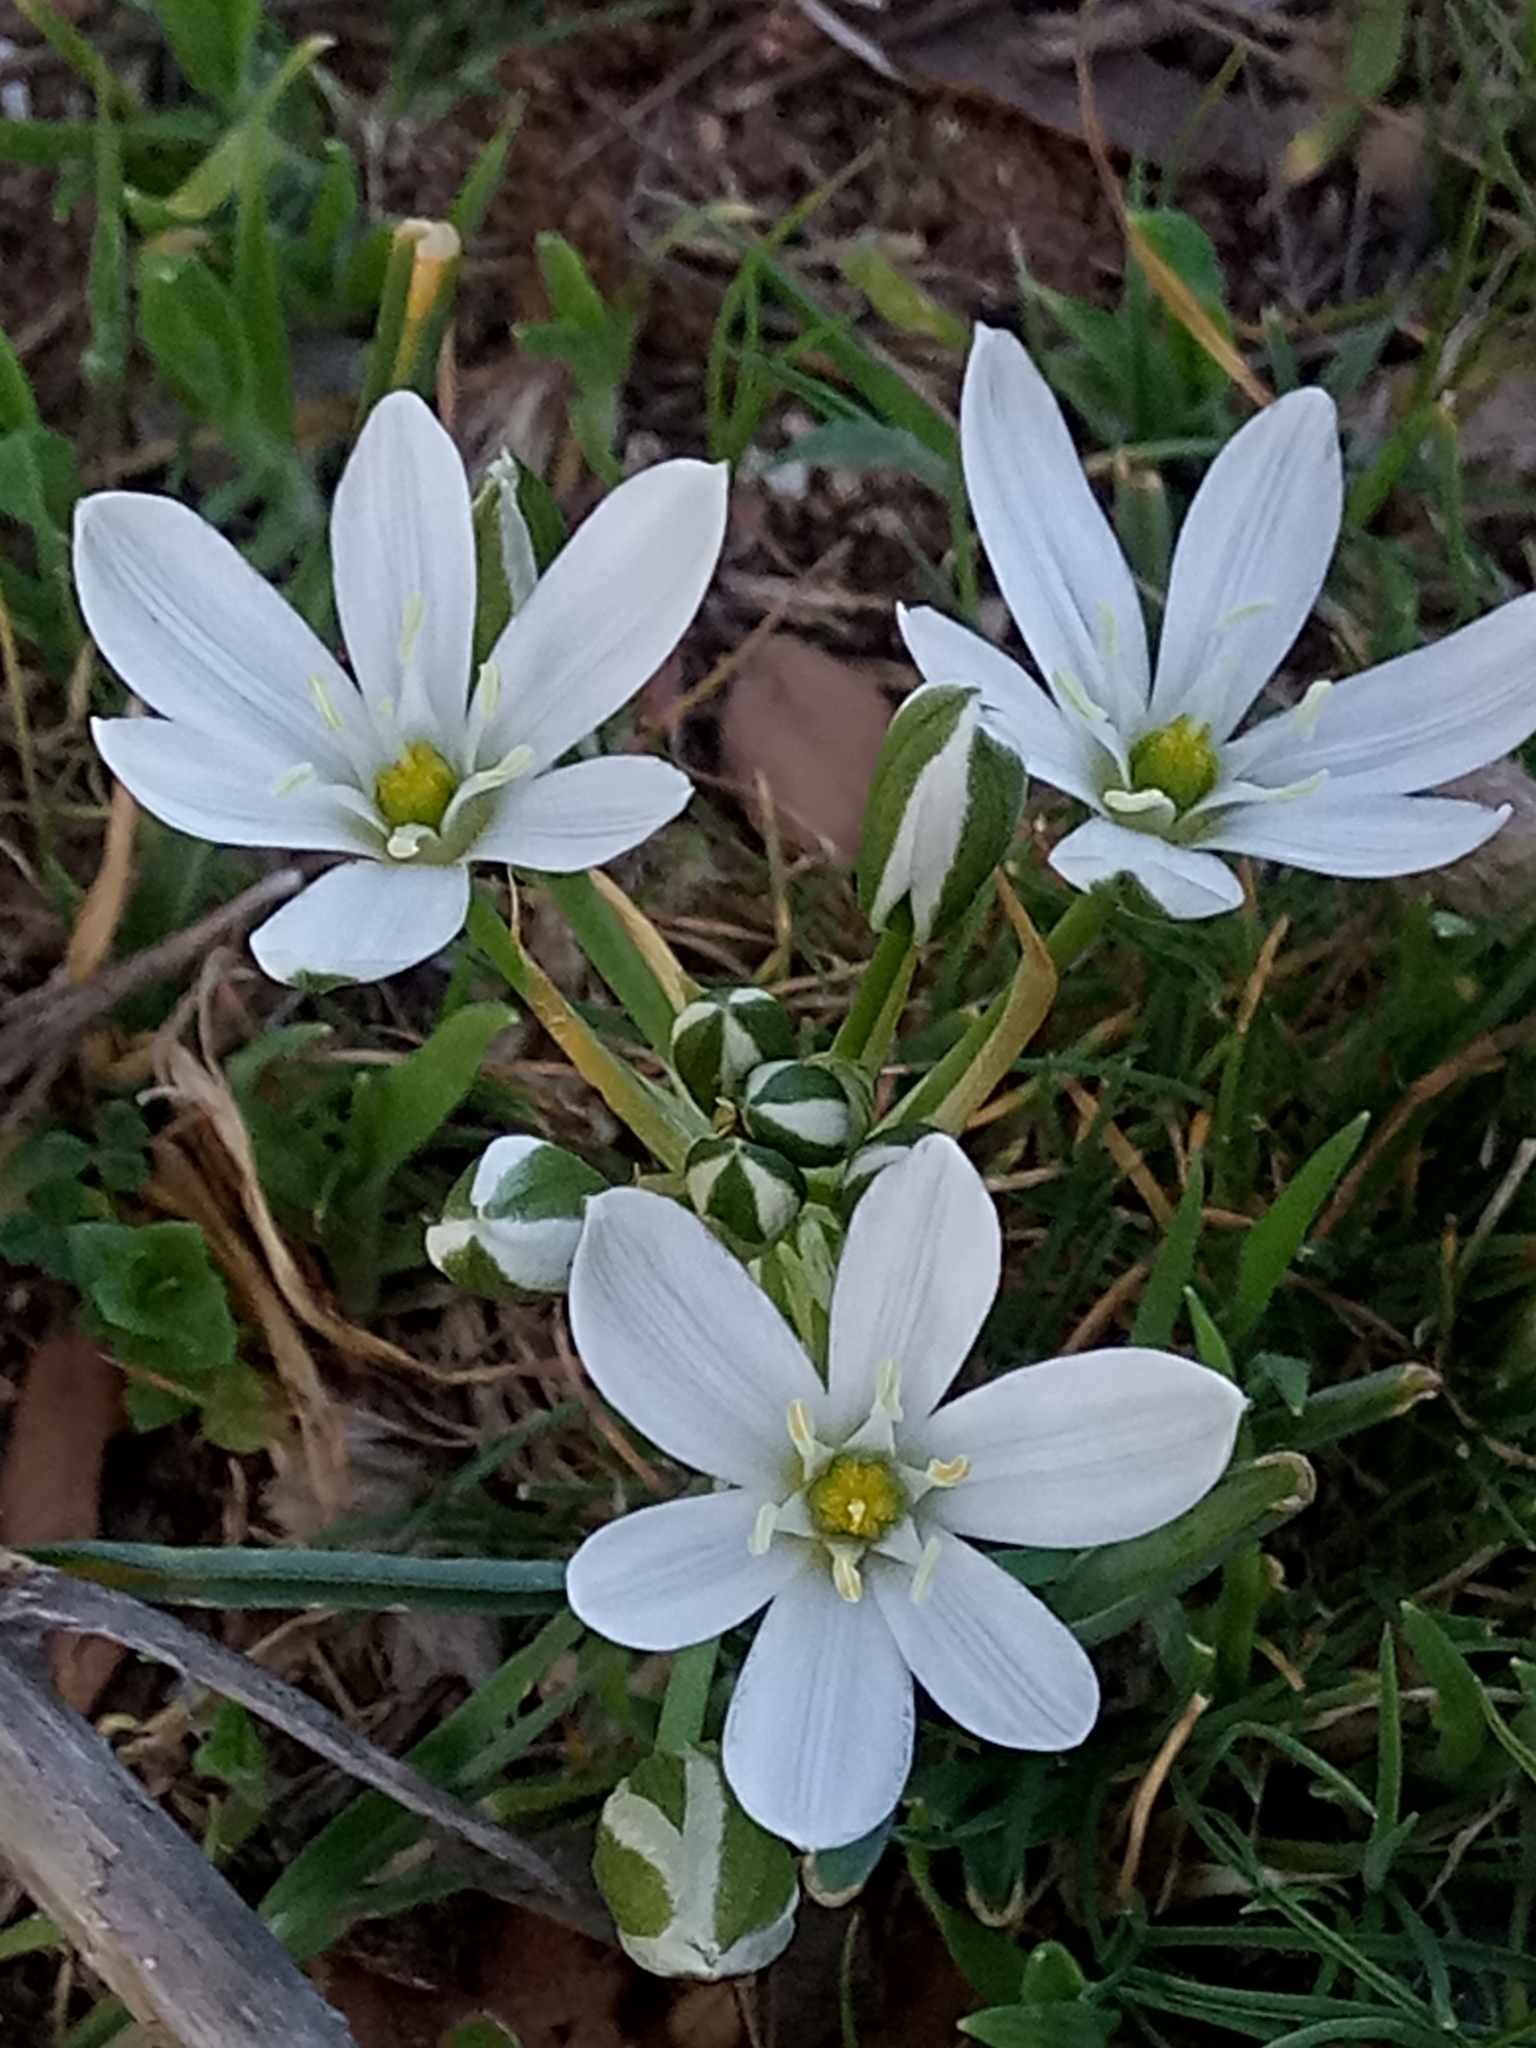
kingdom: Plantae
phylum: Tracheophyta
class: Liliopsida
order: Asparagales
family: Asparagaceae
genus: Ornithogalum
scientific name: Ornithogalum baeticum
